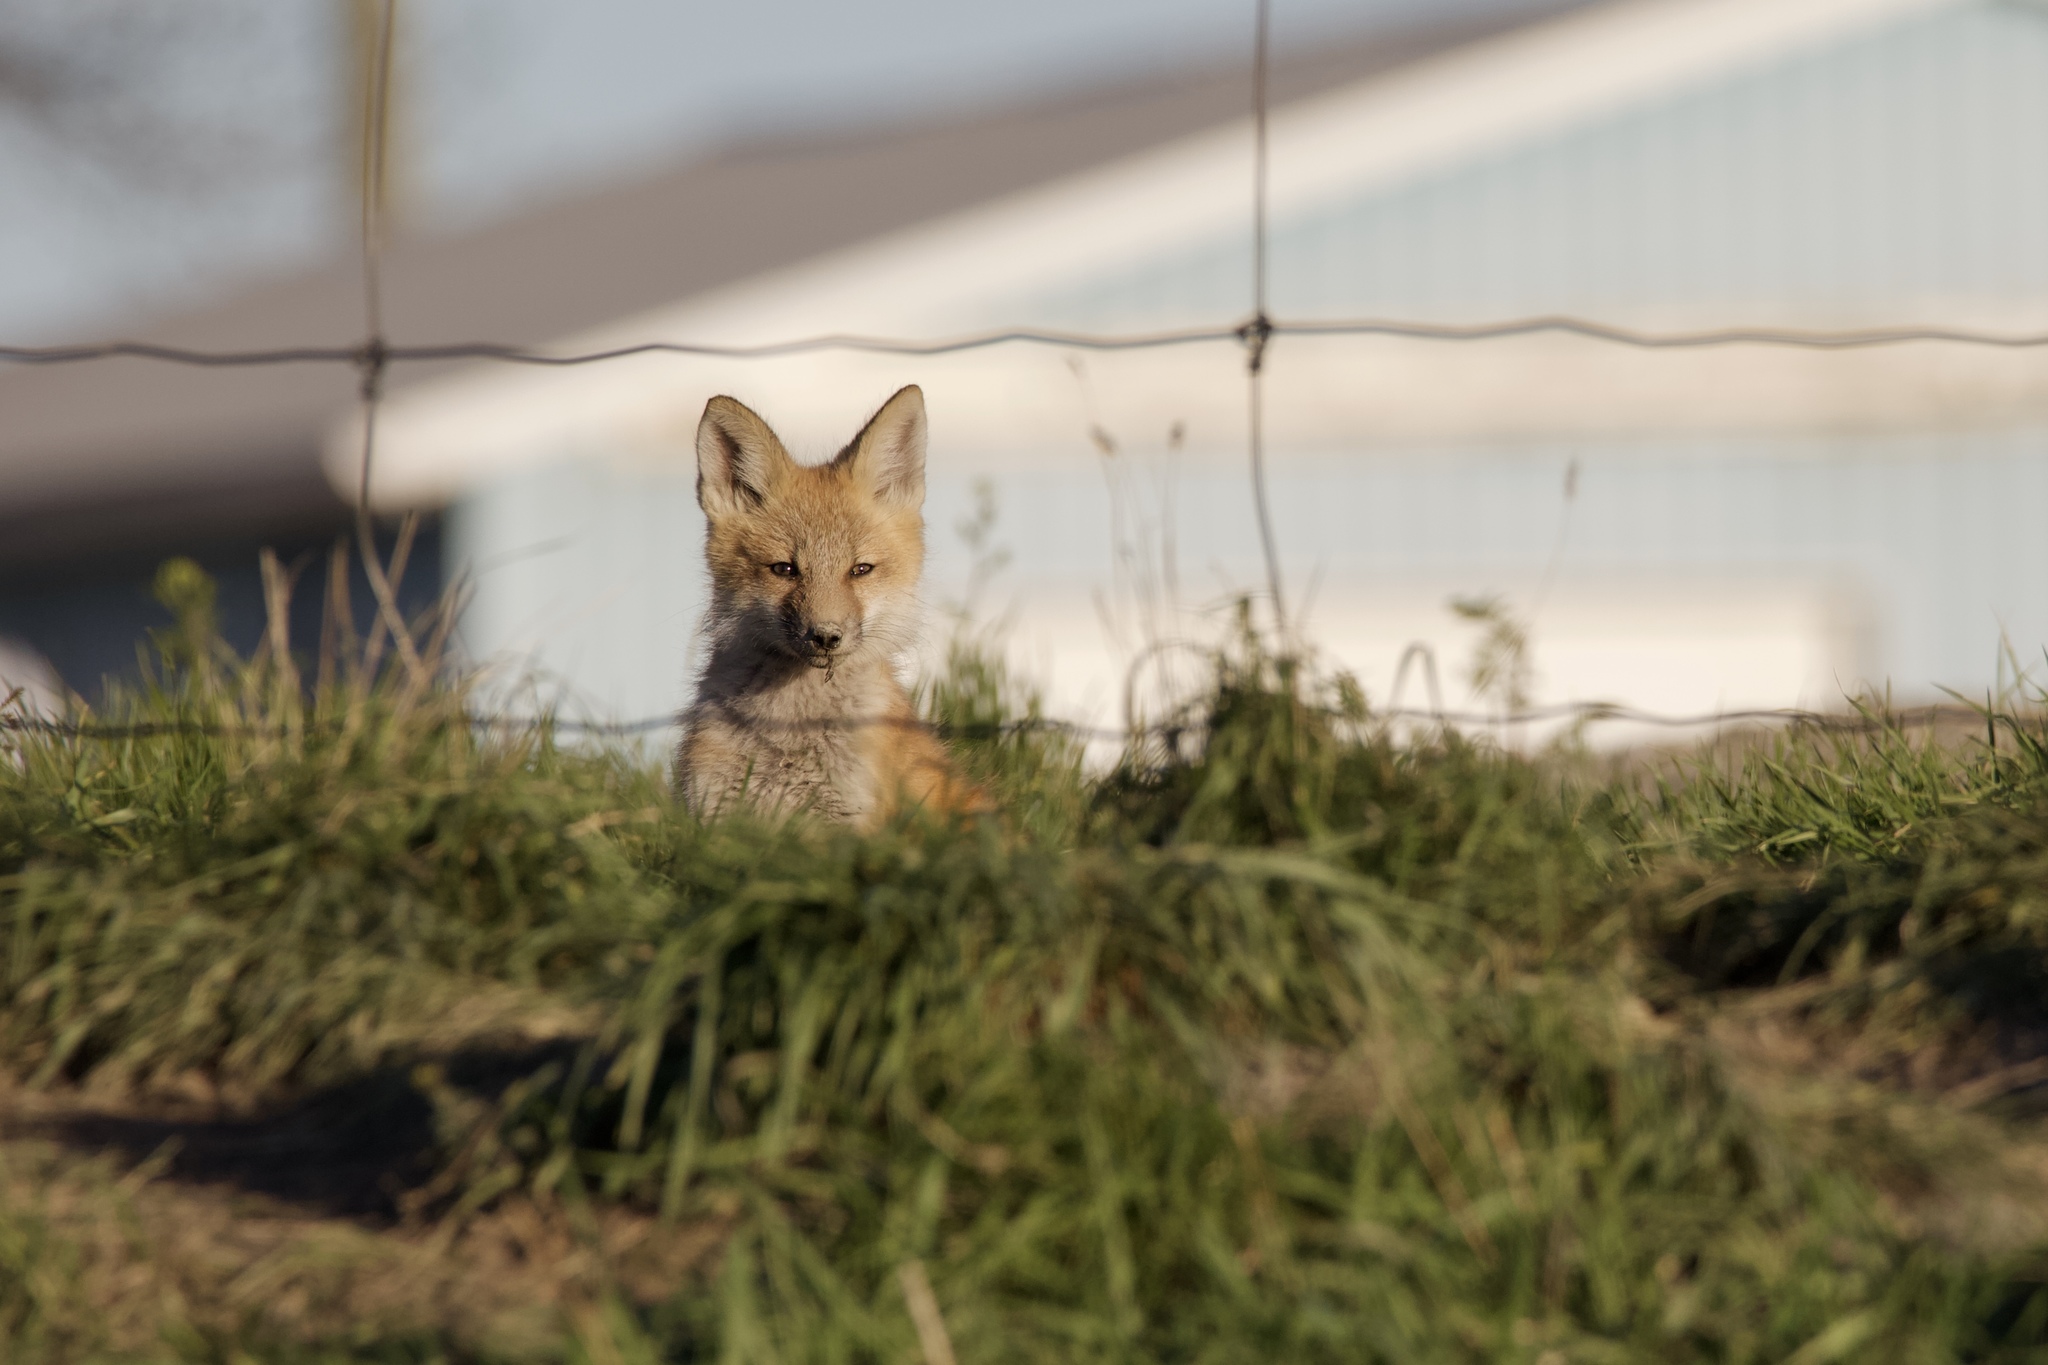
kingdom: Animalia
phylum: Chordata
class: Mammalia
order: Carnivora
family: Canidae
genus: Vulpes
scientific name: Vulpes vulpes
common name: Red fox
